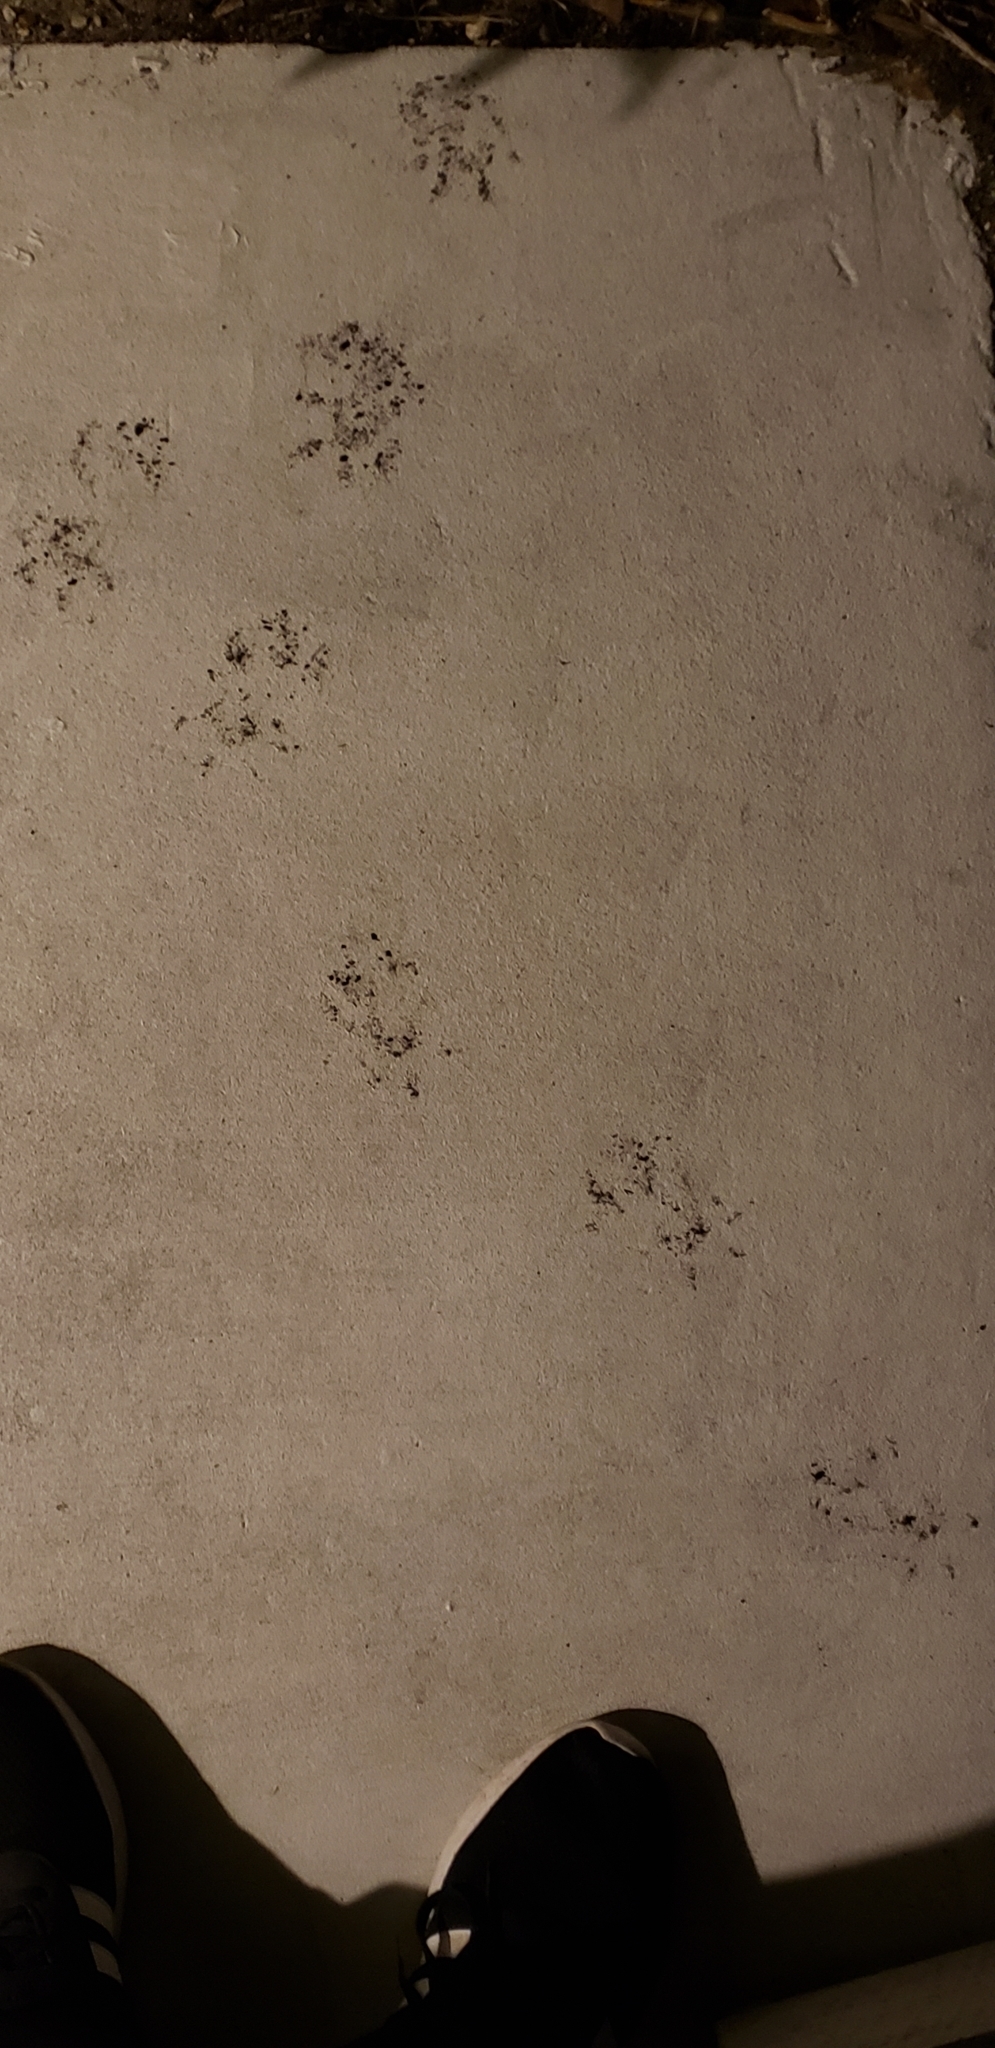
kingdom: Animalia
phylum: Chordata
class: Mammalia
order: Didelphimorphia
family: Didelphidae
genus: Didelphis
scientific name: Didelphis virginiana
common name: Virginia opossum
